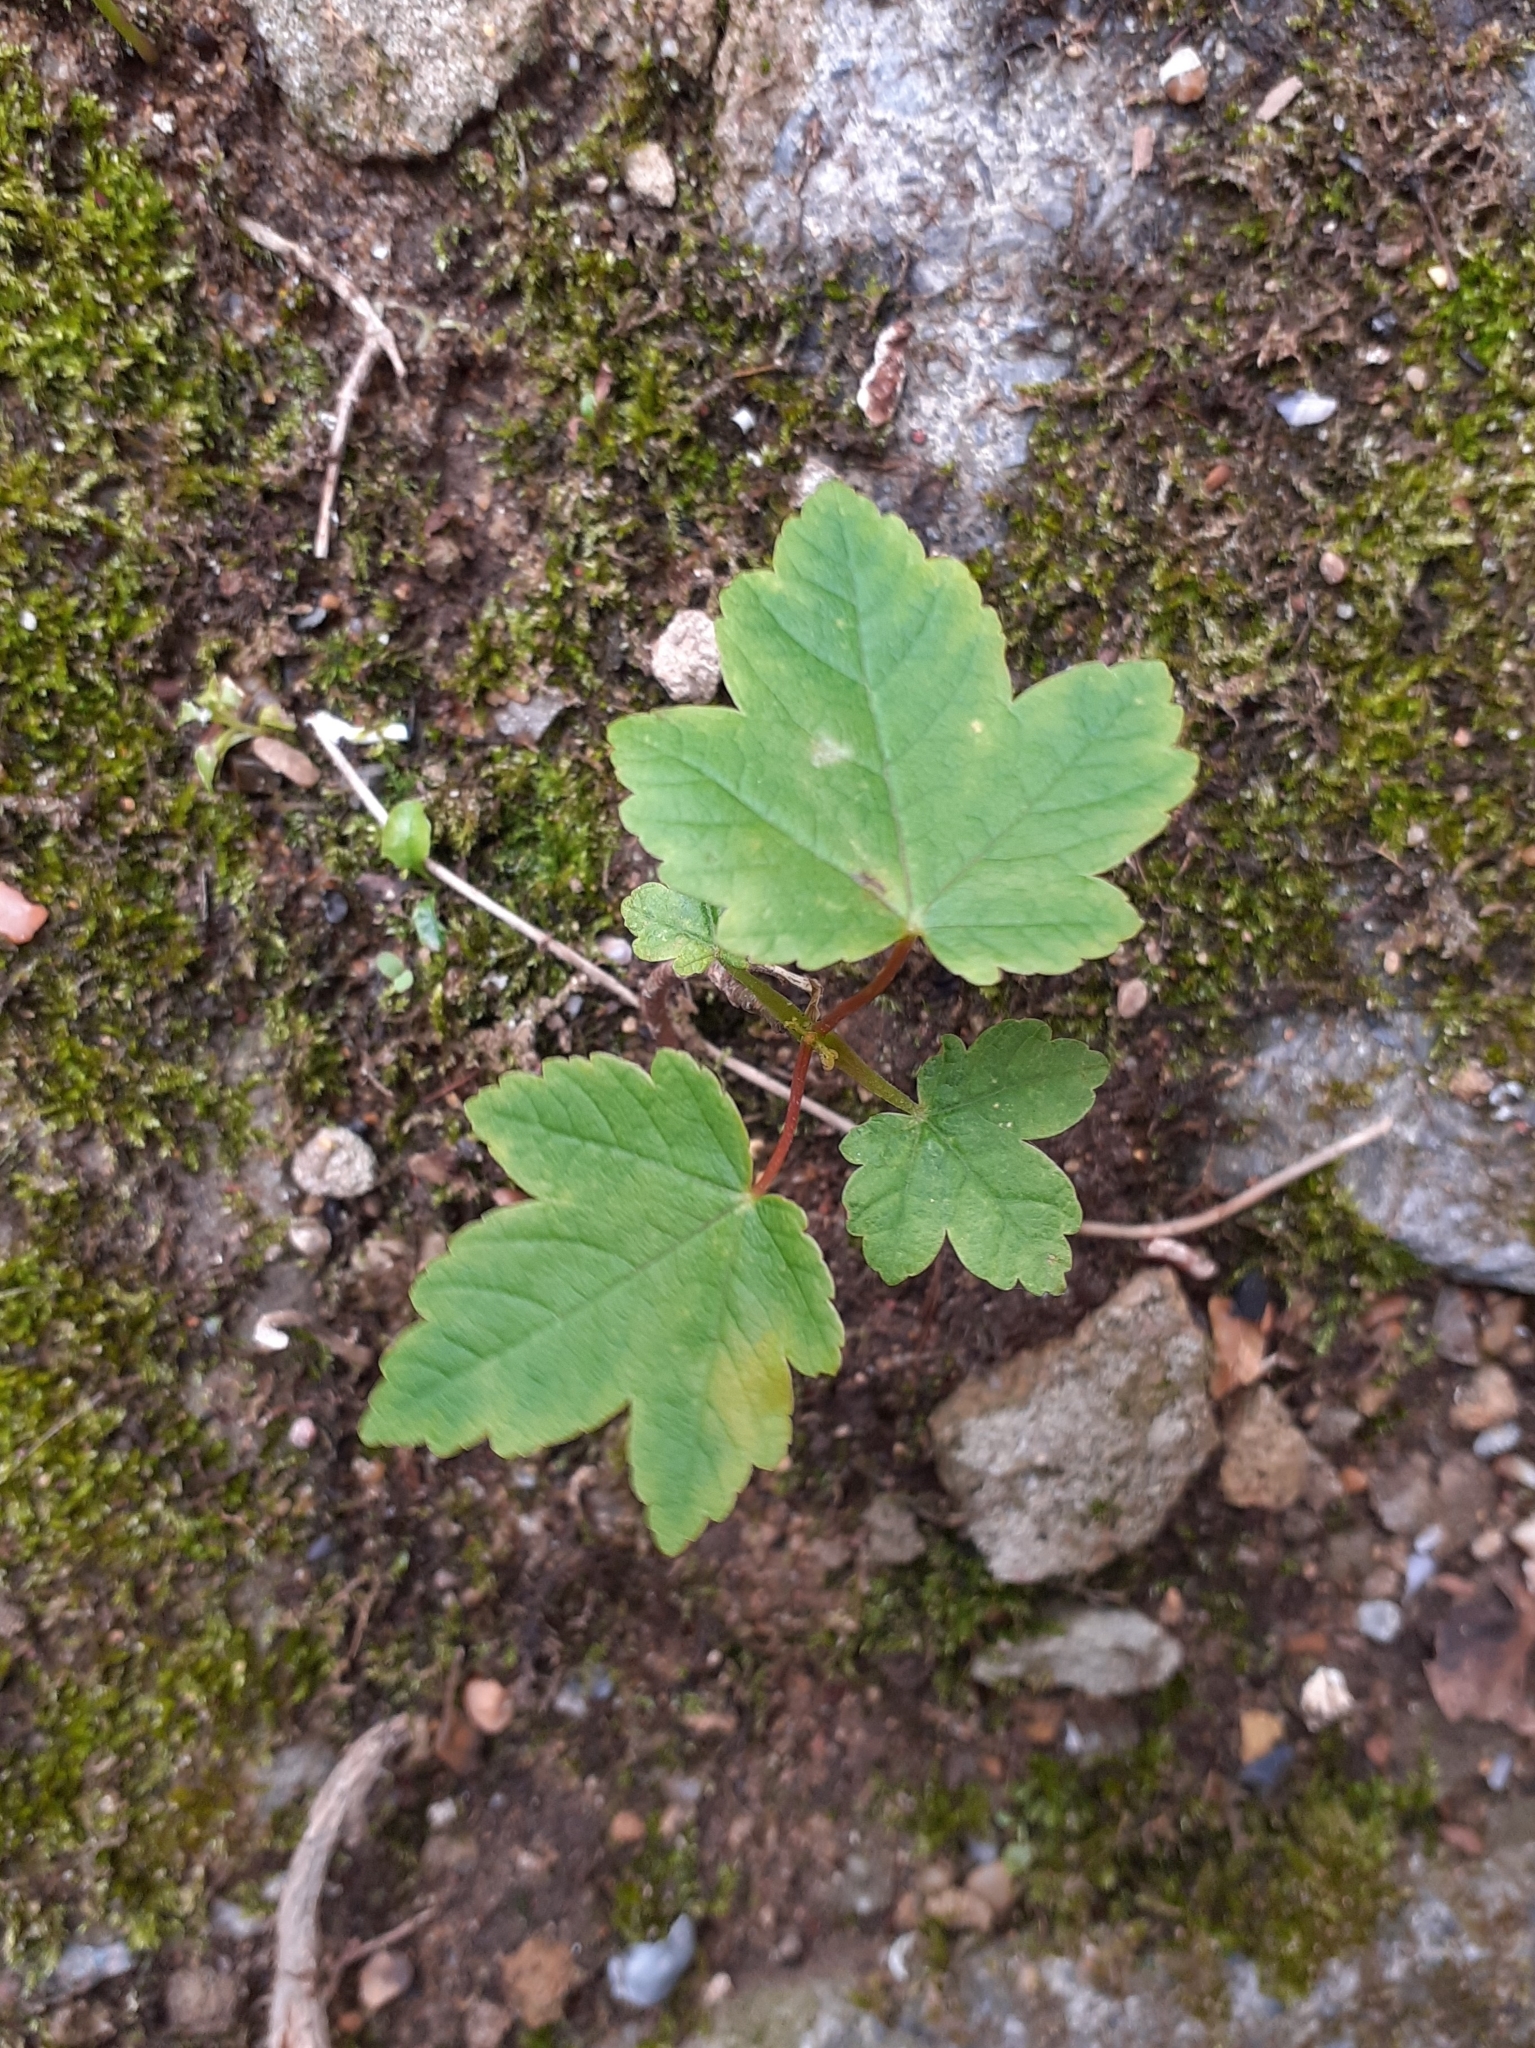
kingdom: Plantae
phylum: Tracheophyta
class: Magnoliopsida
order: Sapindales
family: Sapindaceae
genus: Acer
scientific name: Acer pseudoplatanus
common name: Sycamore
